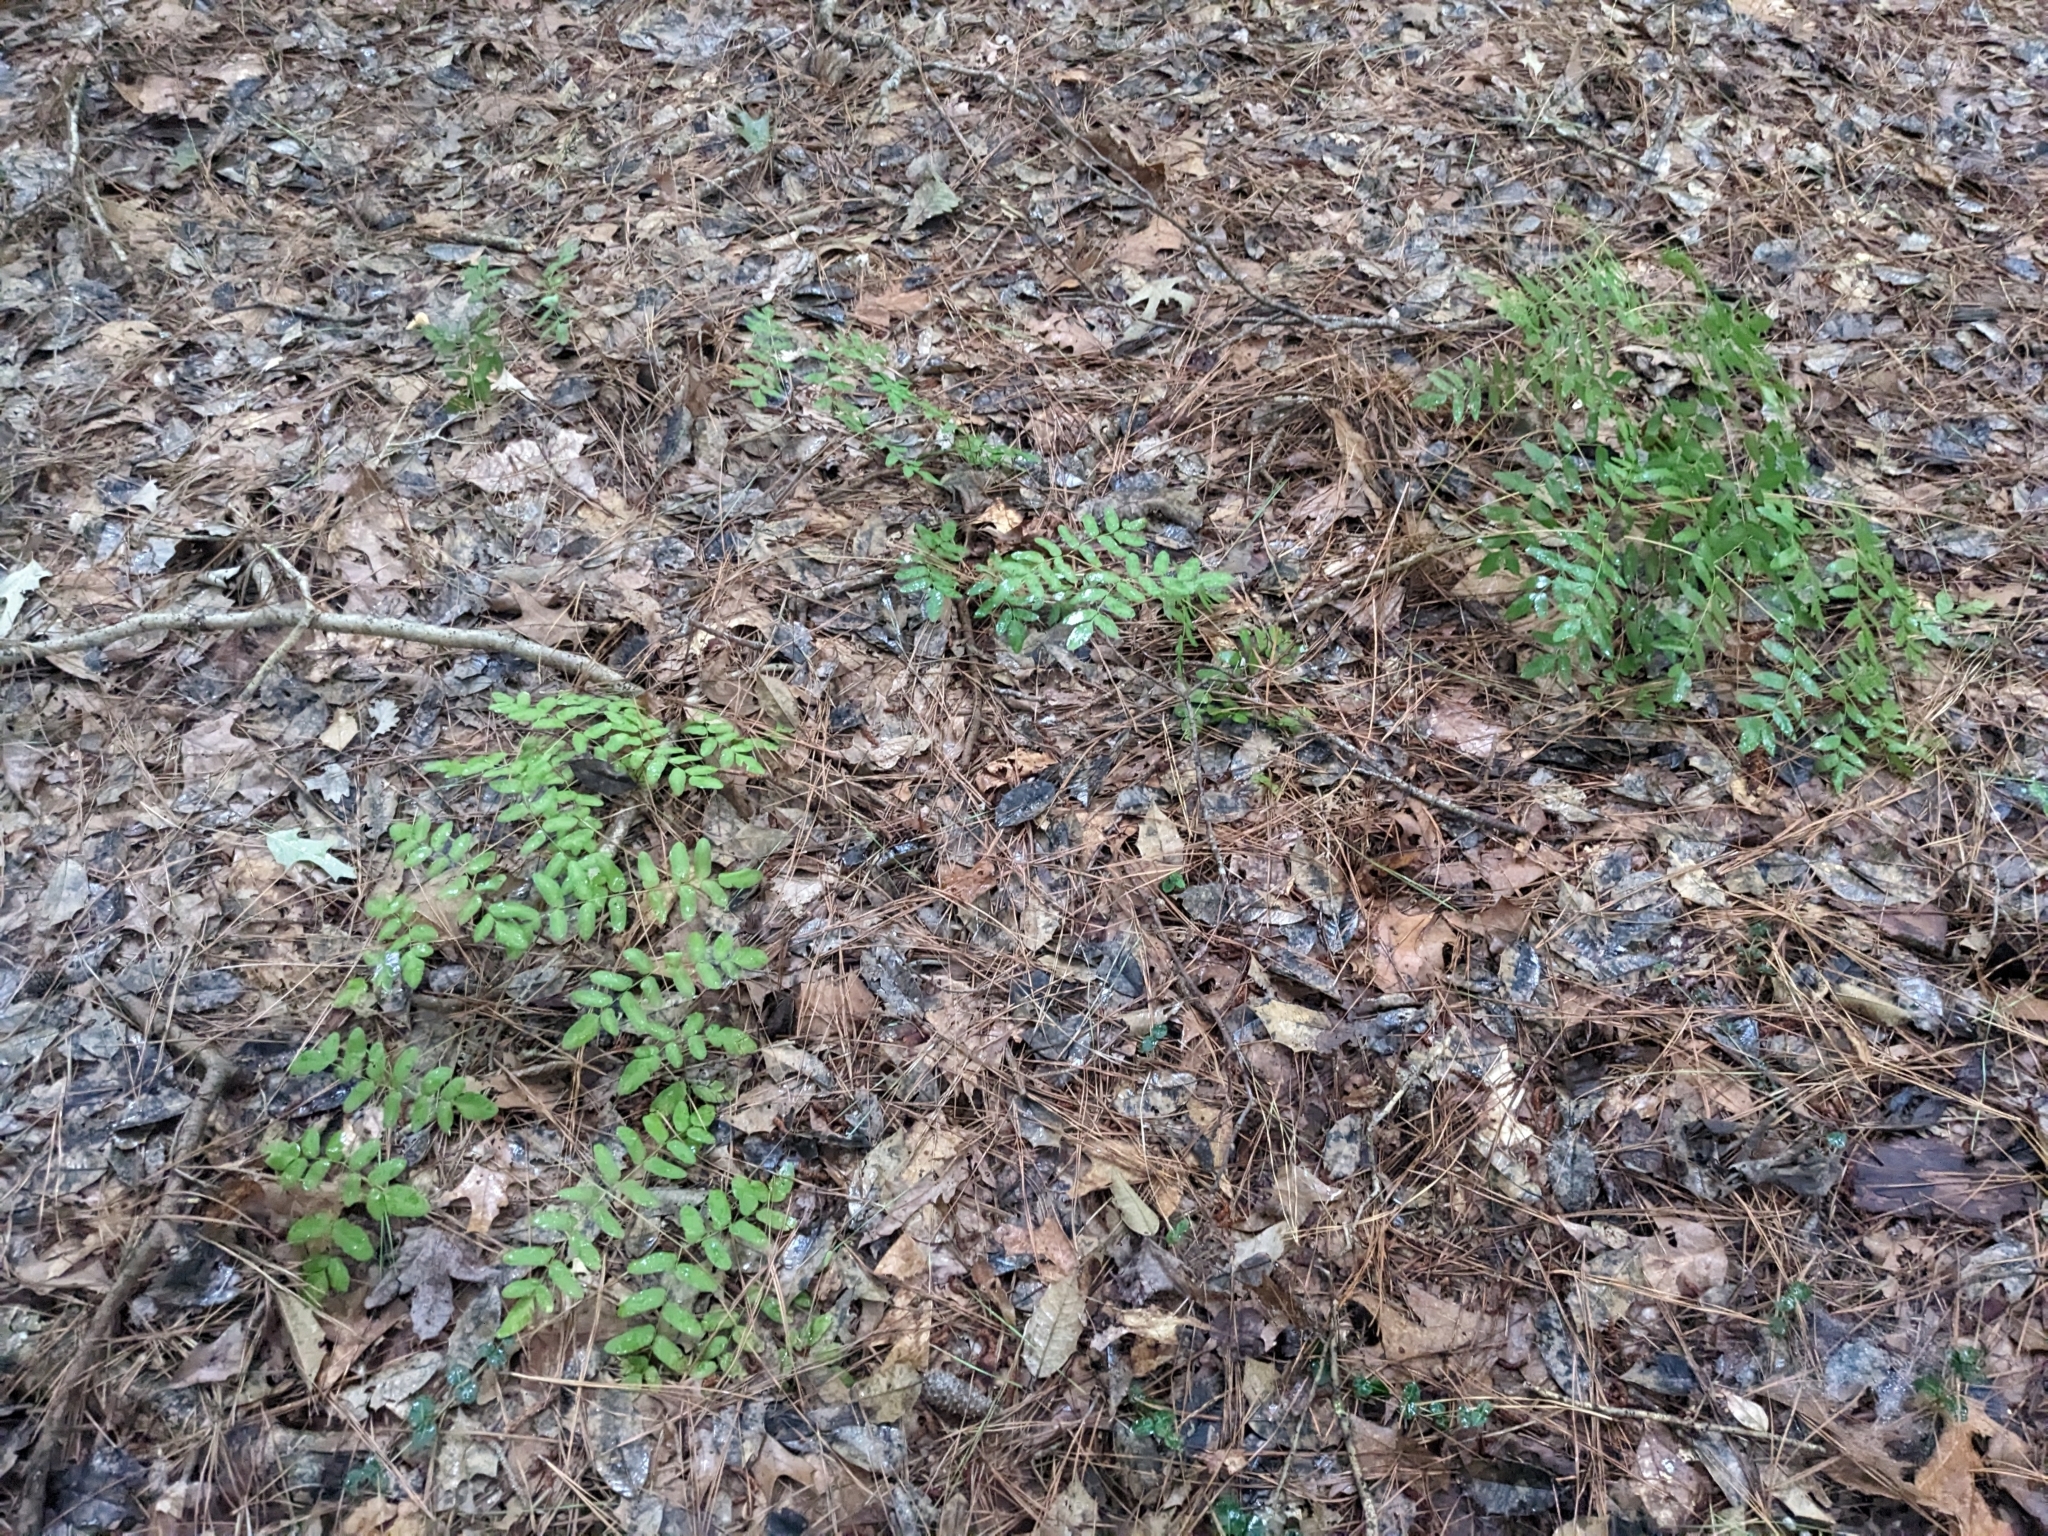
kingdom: Plantae
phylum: Tracheophyta
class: Polypodiopsida
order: Osmundales
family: Osmundaceae
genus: Osmunda
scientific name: Osmunda spectabilis
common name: American royal fern
